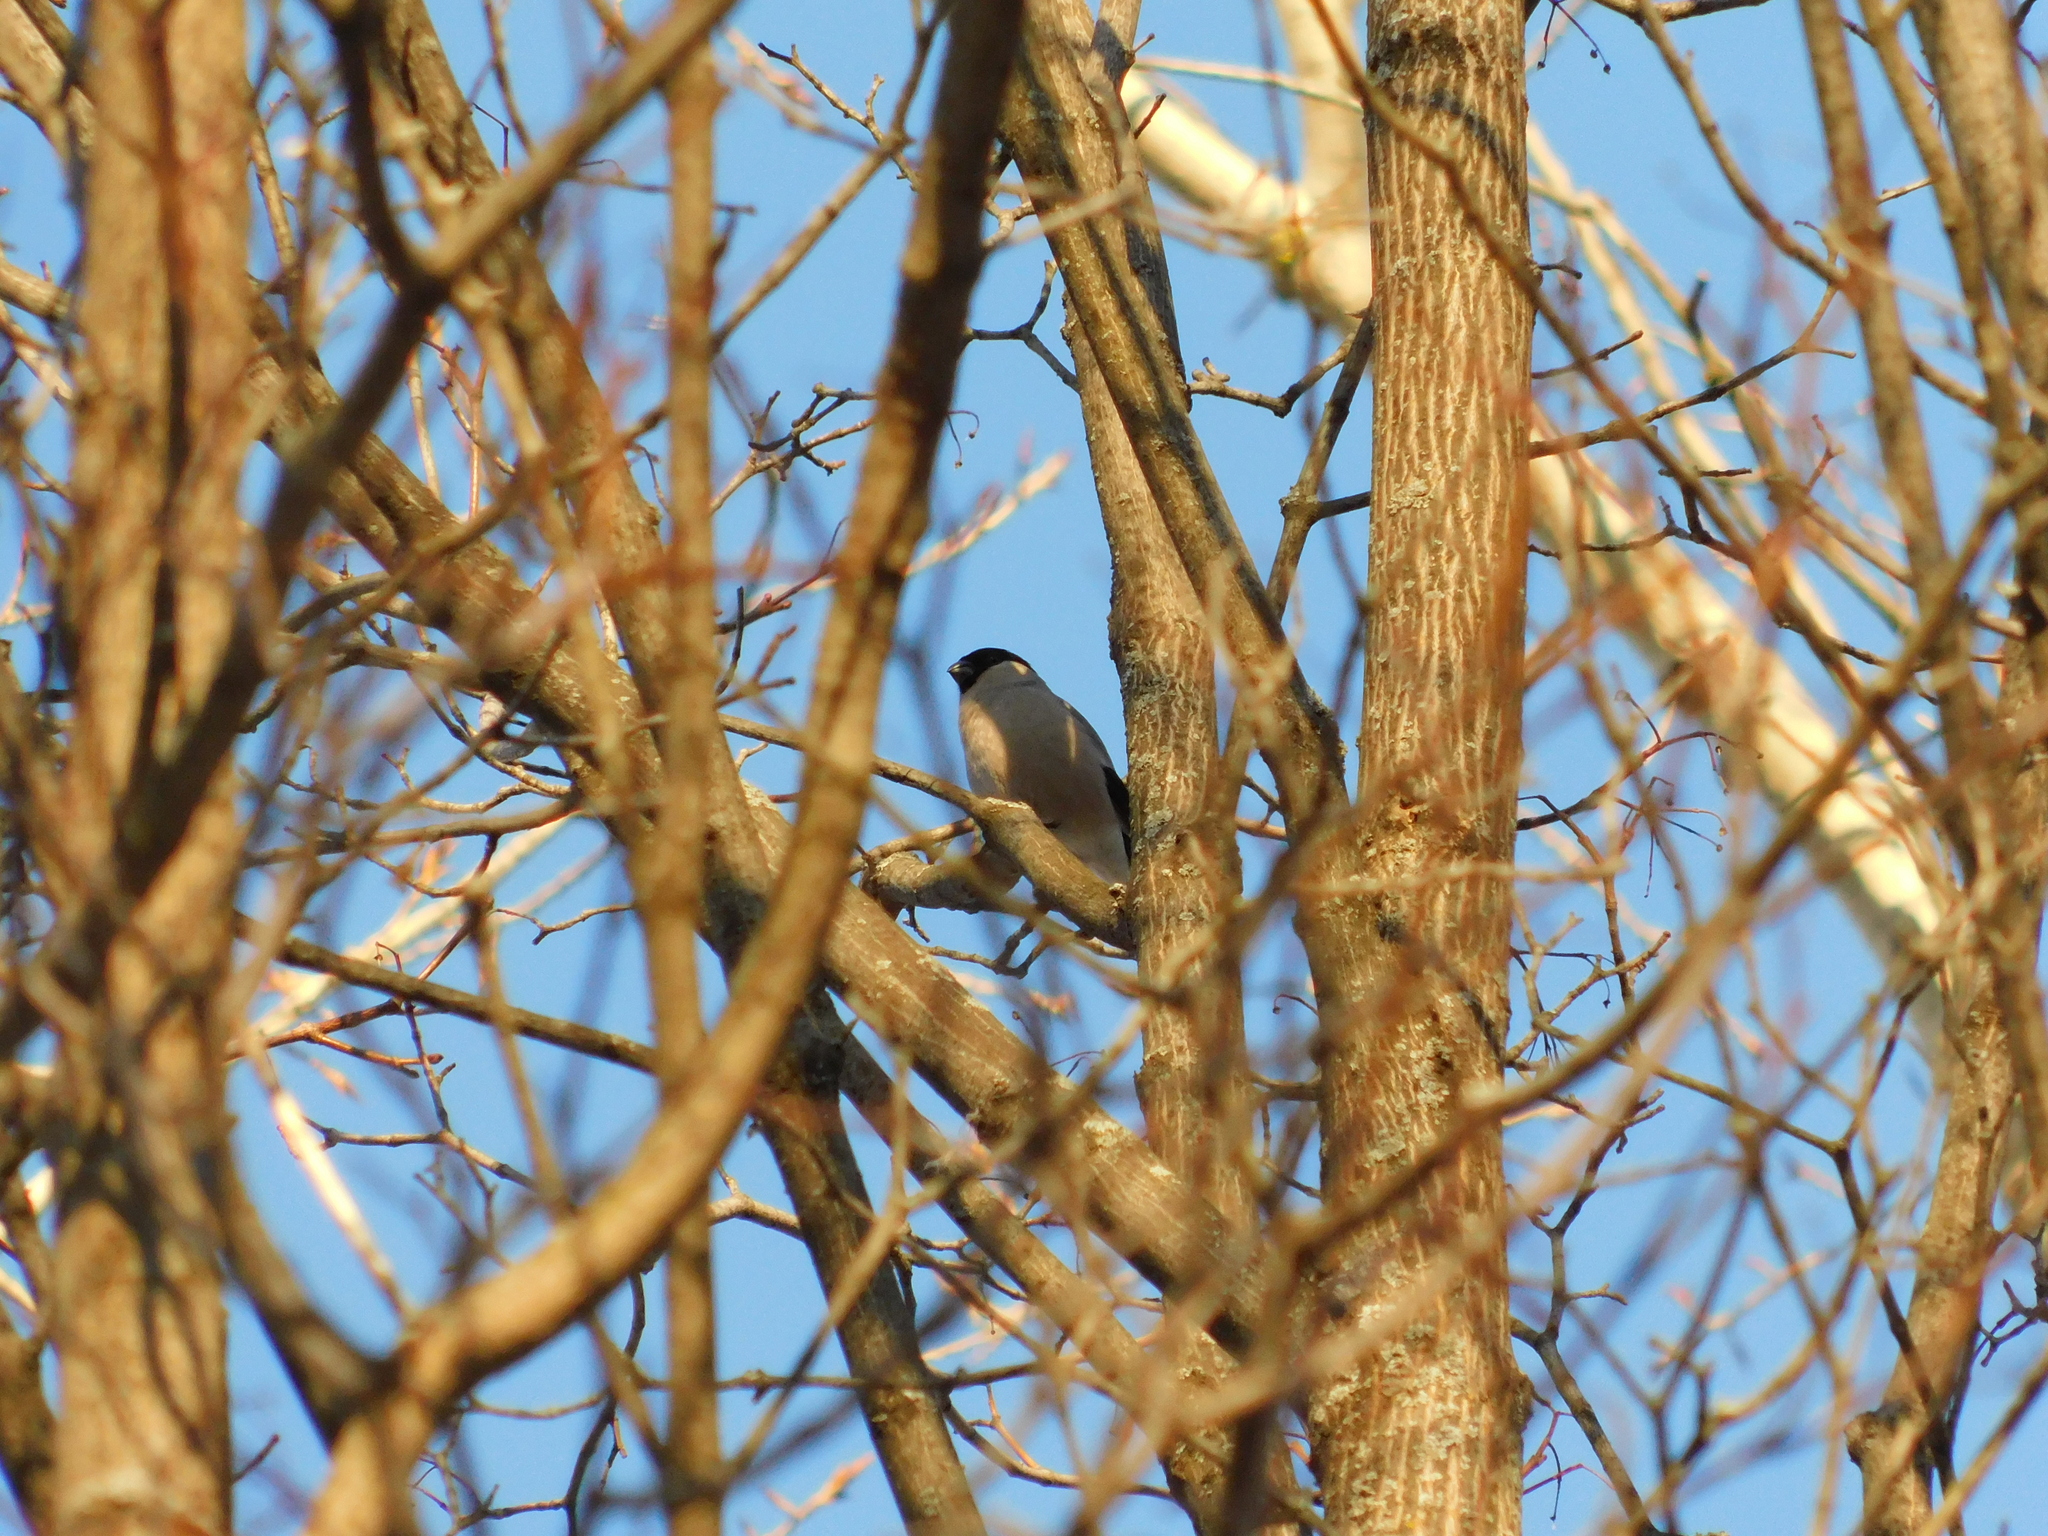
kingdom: Animalia
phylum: Chordata
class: Aves
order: Passeriformes
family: Fringillidae
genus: Pyrrhula
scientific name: Pyrrhula pyrrhula
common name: Eurasian bullfinch
